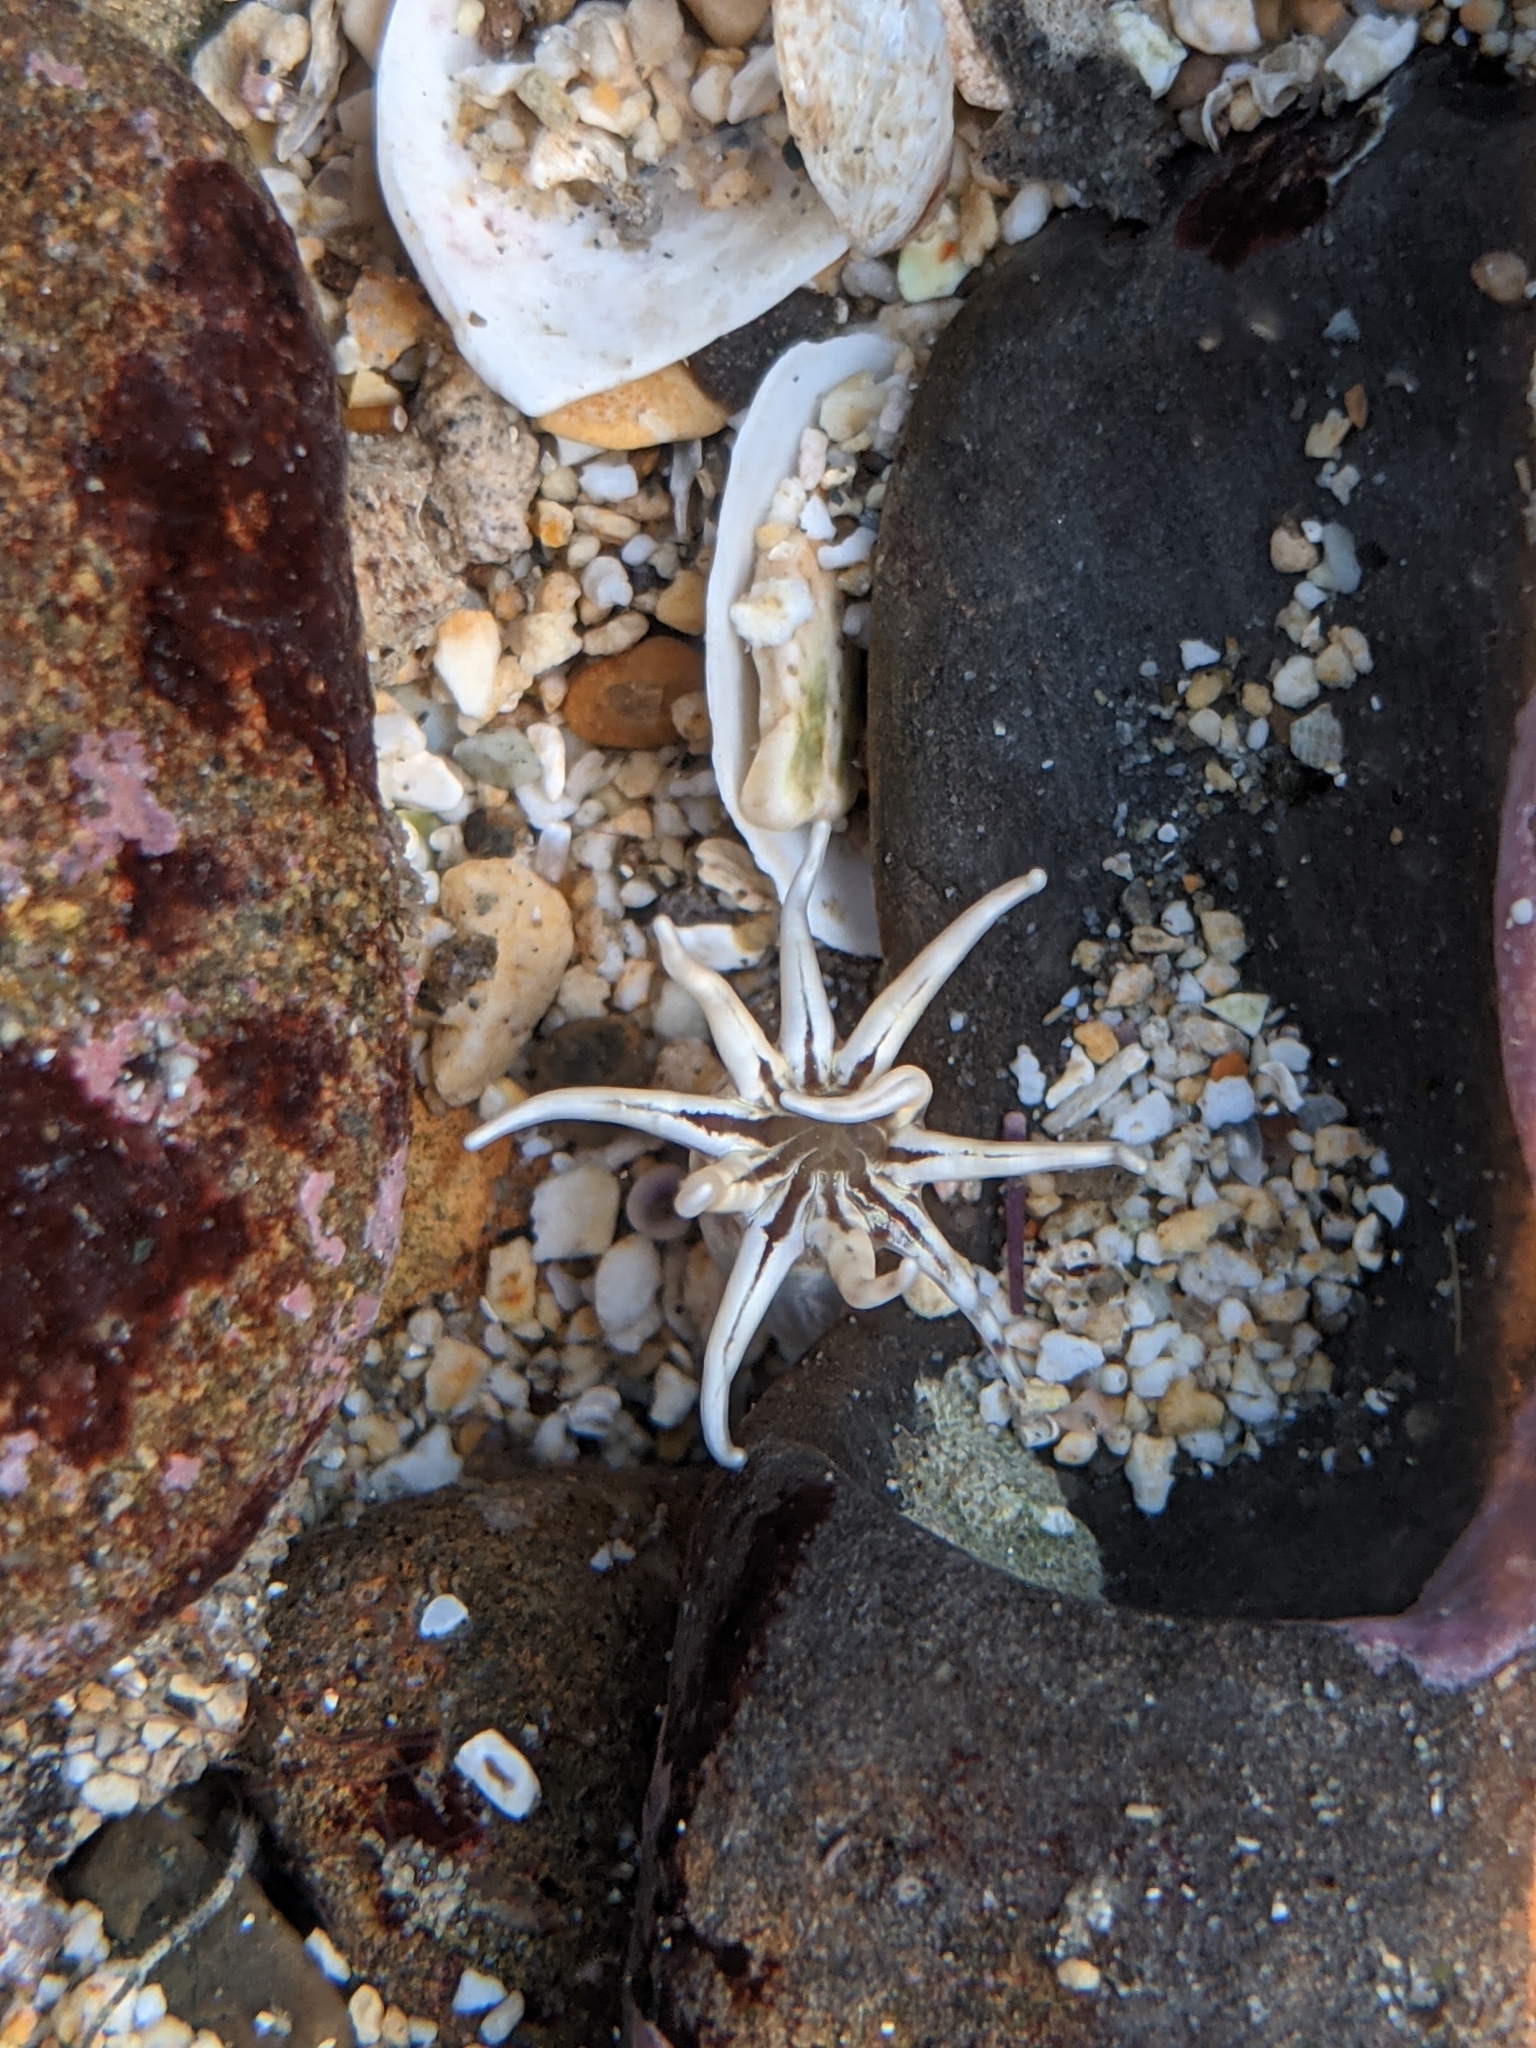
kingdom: Animalia
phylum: Cnidaria
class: Anthozoa
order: Actiniaria
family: Halcampidae
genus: Halcampa
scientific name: Halcampa decemtentaculata
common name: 10-tentacle burrowing anemone
